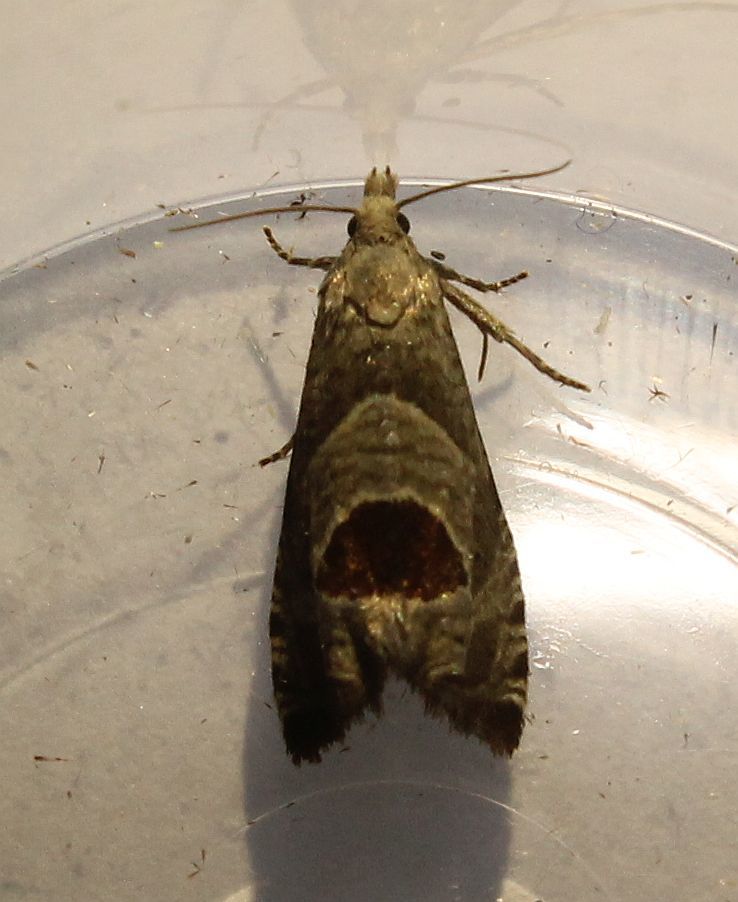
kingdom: Animalia
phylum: Arthropoda
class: Insecta
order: Lepidoptera
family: Tortricidae
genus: Notocelia
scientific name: Notocelia uddmanniana
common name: Bramble shoot moth
